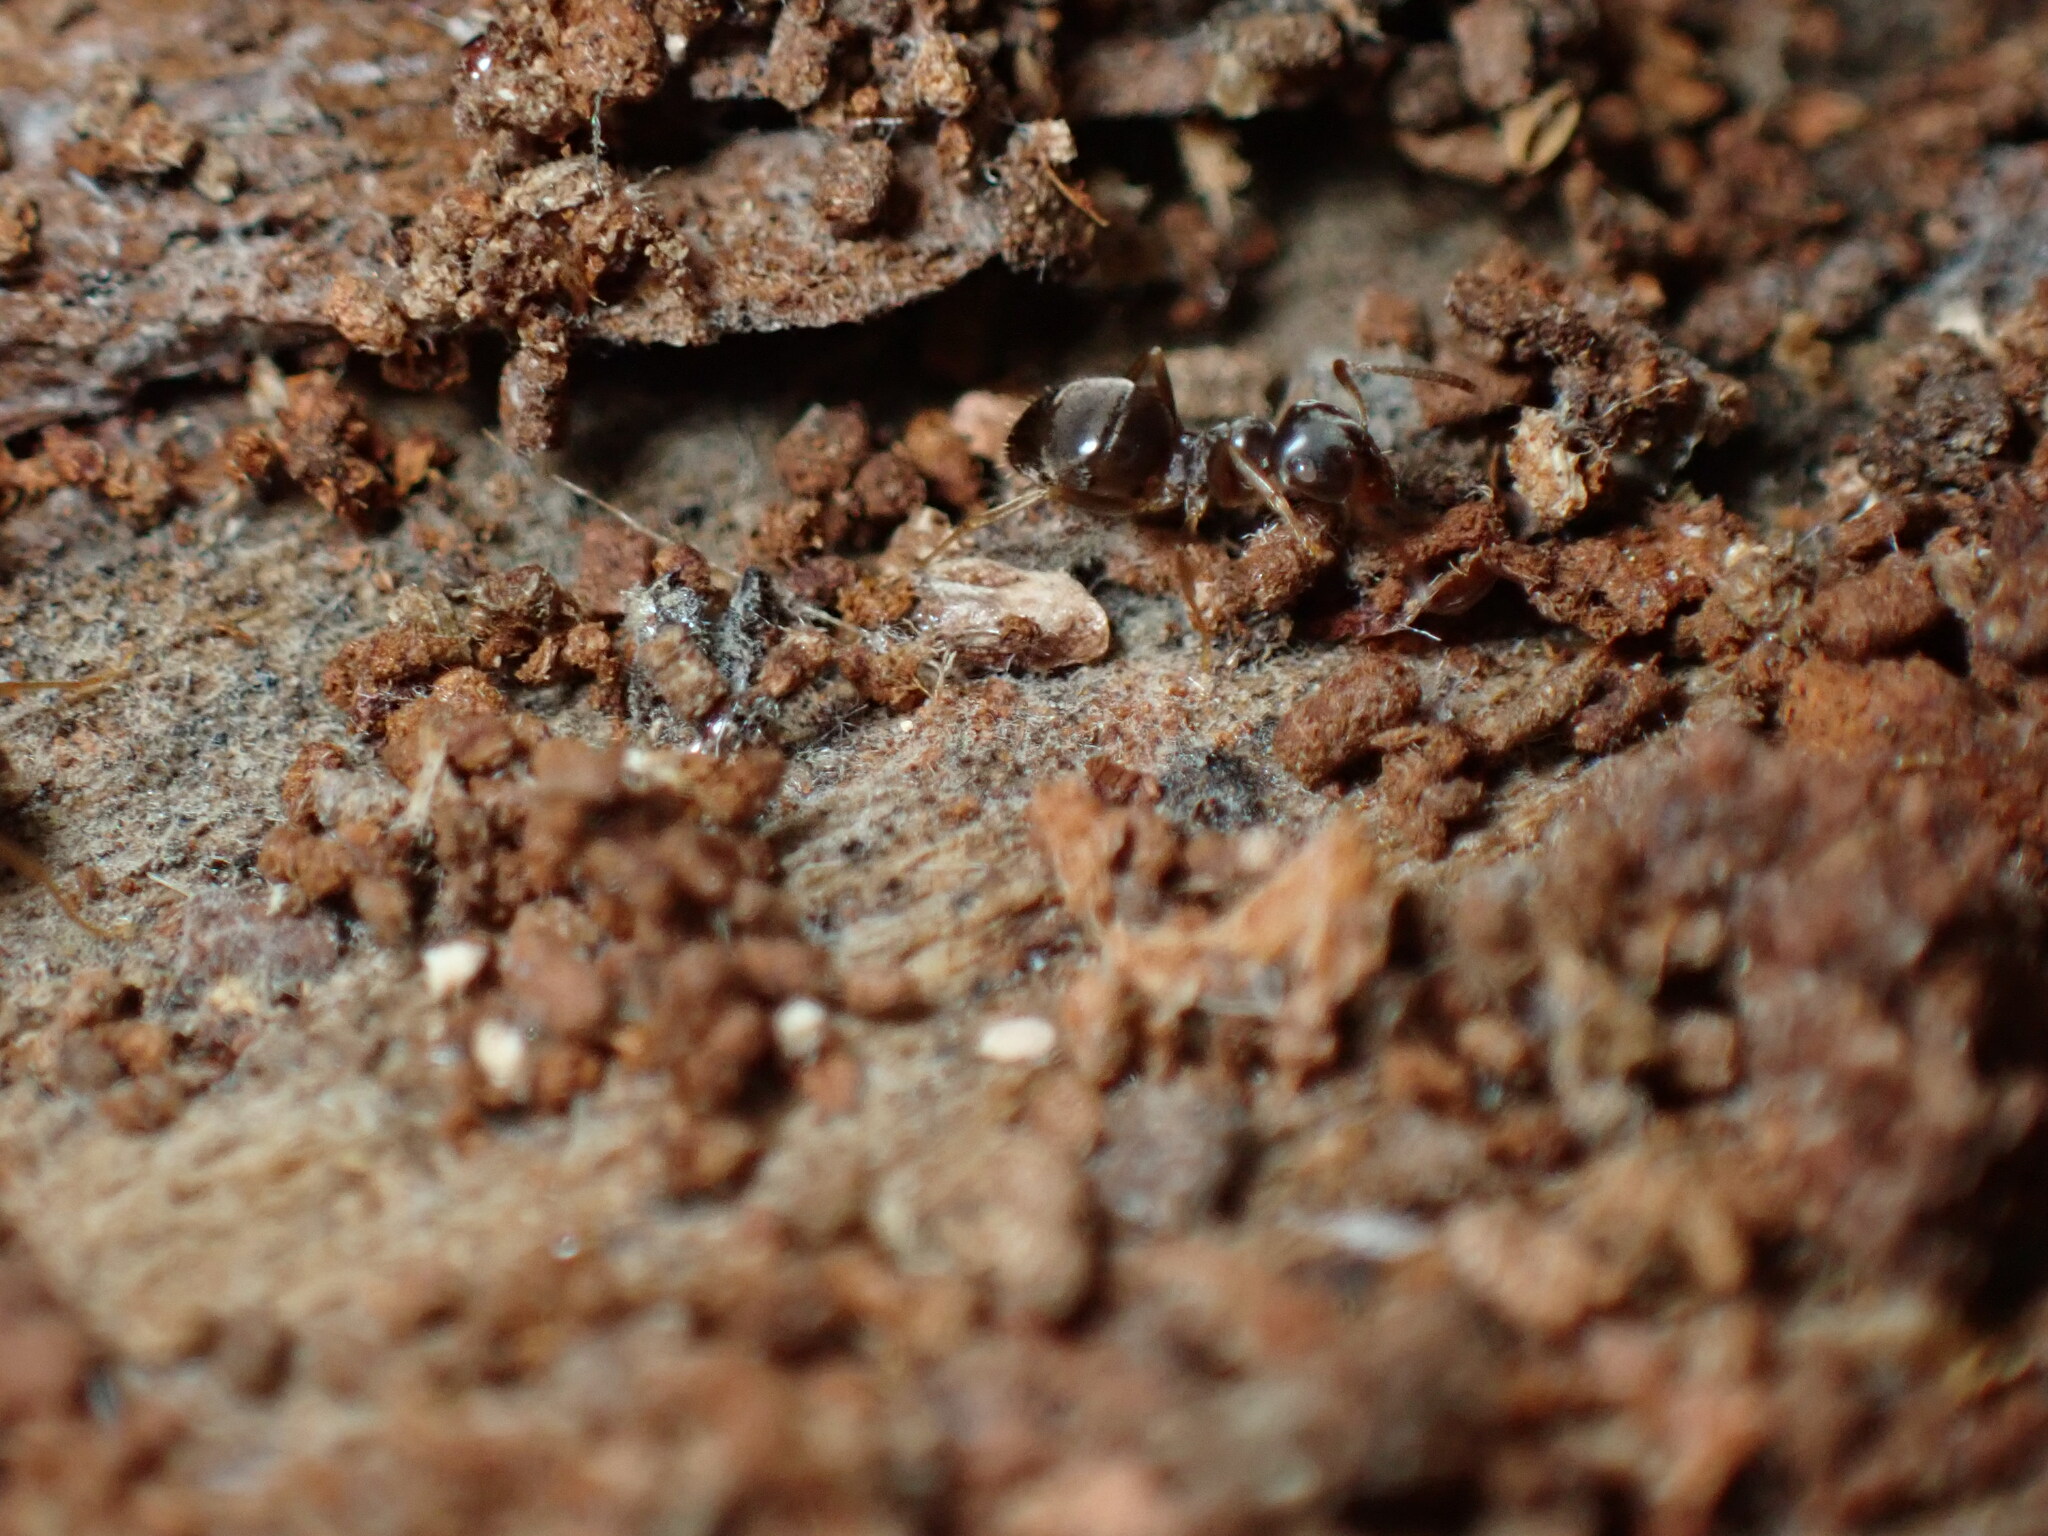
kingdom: Animalia
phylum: Arthropoda
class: Insecta
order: Hymenoptera
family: Formicidae
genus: Lasius
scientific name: Lasius americanus
